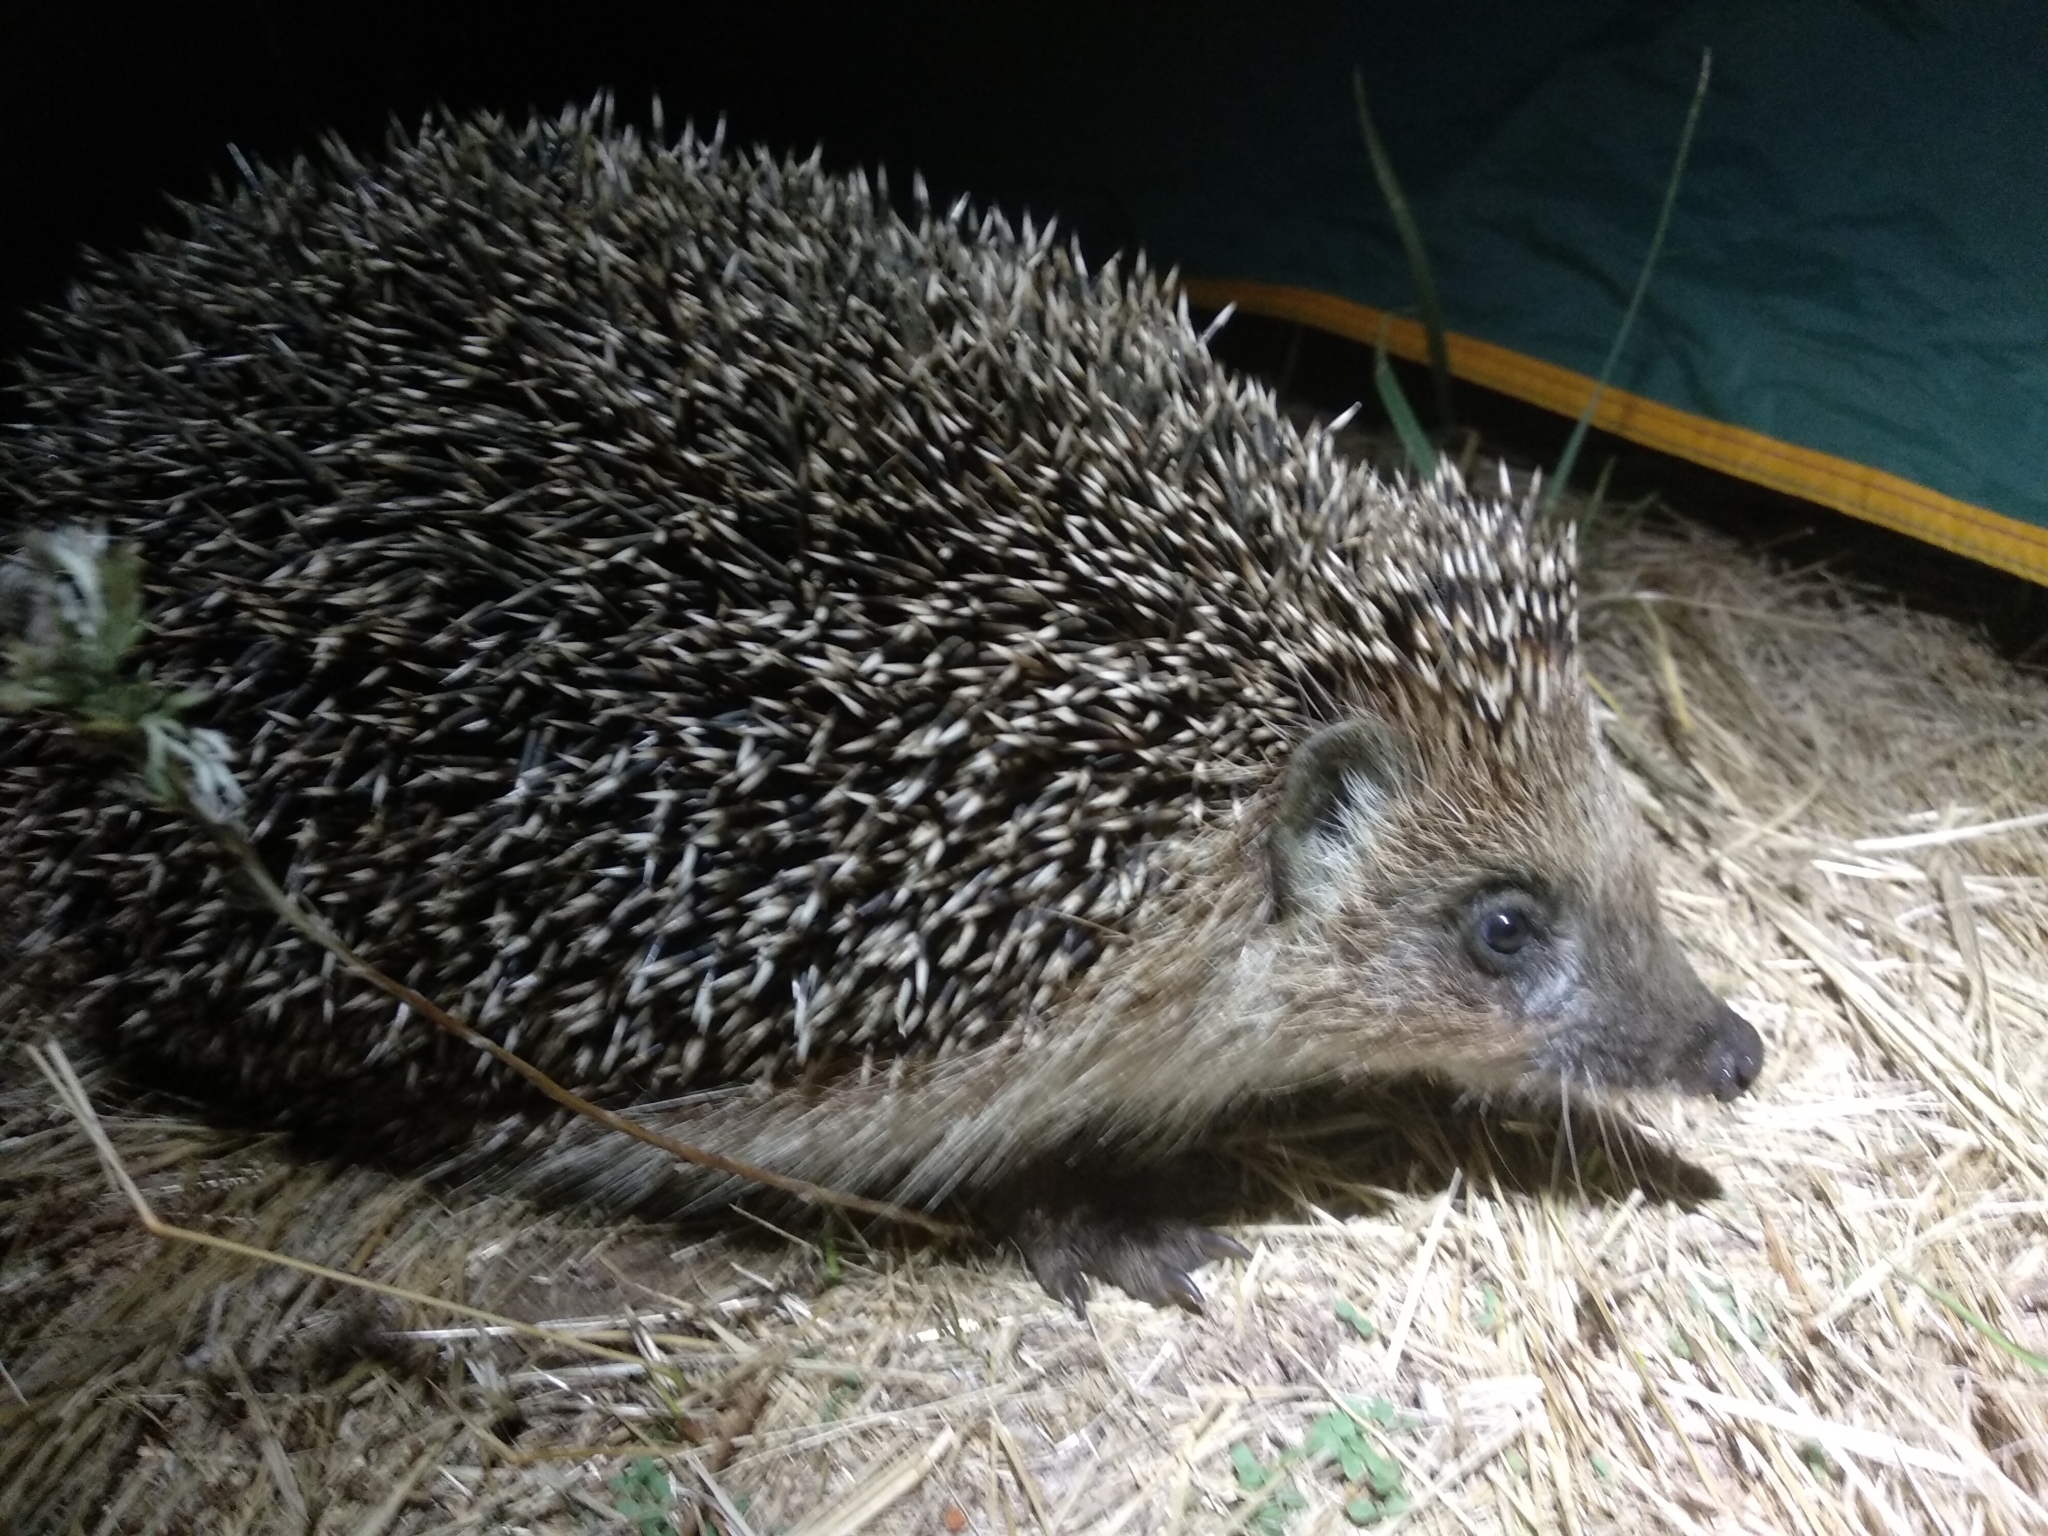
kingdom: Animalia
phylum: Chordata
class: Mammalia
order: Erinaceomorpha
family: Erinaceidae
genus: Erinaceus
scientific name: Erinaceus roumanicus
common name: Northern white-breasted hedgehog
